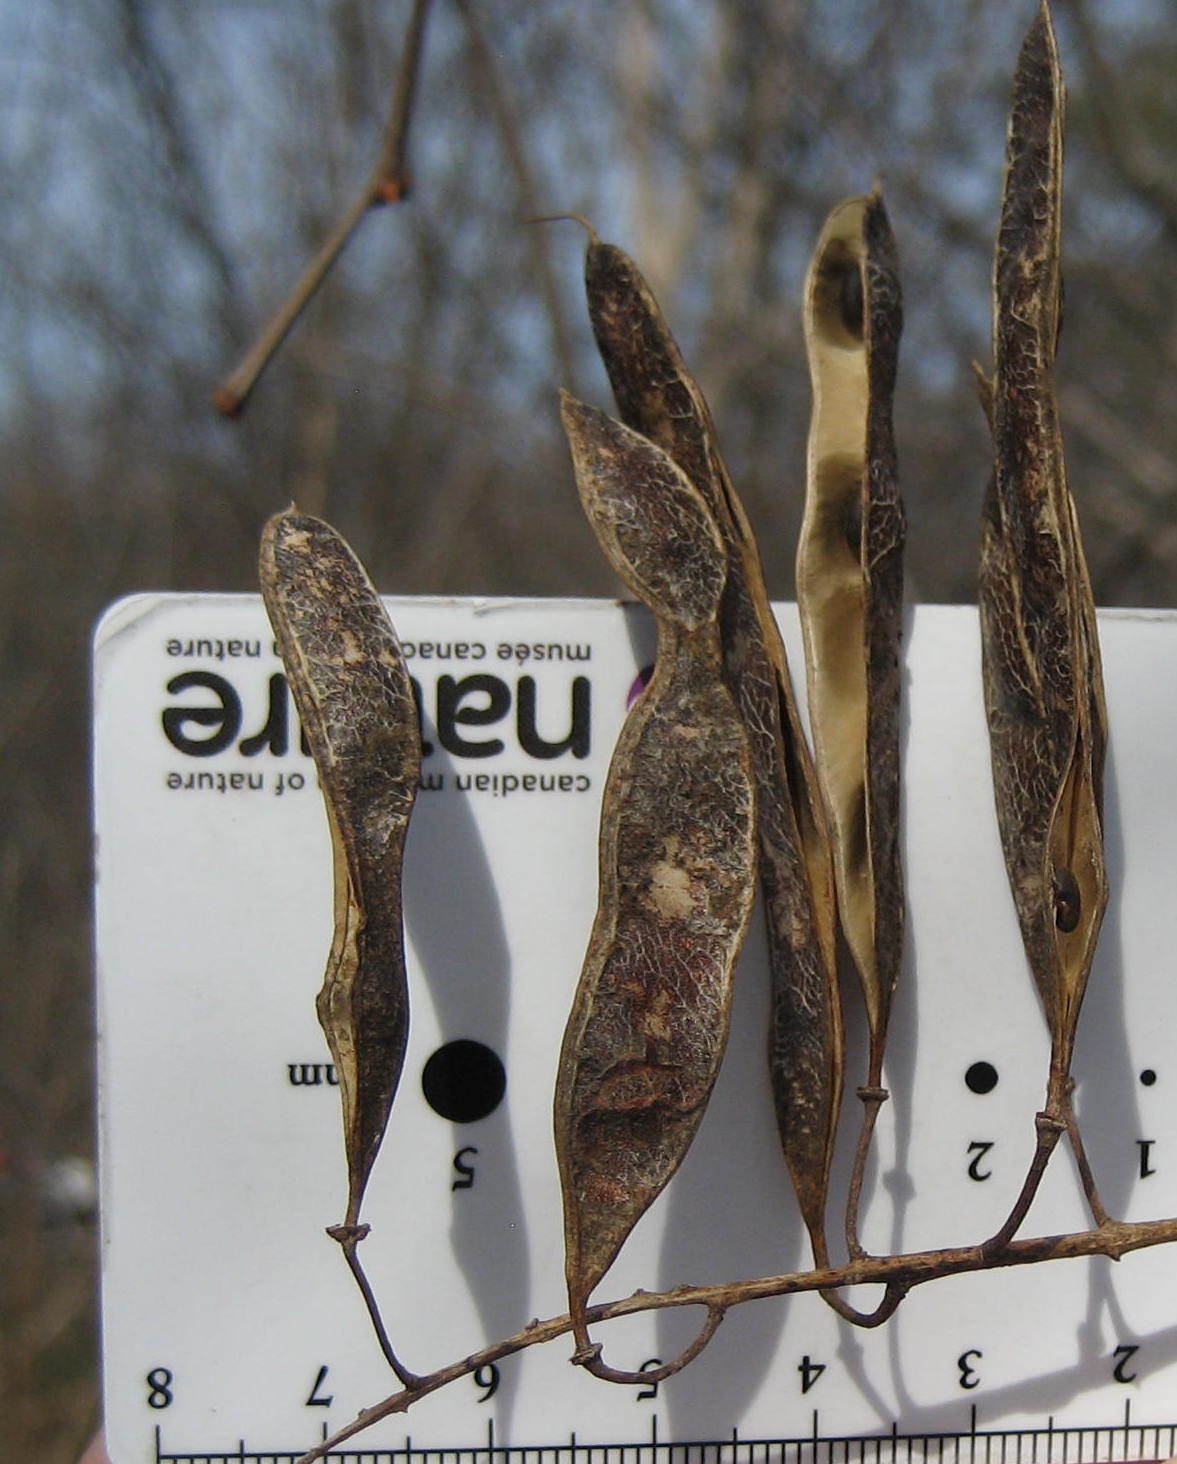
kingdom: Plantae
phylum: Tracheophyta
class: Magnoliopsida
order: Fabales
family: Fabaceae
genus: Robinia
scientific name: Robinia pseudoacacia
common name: Black locust
